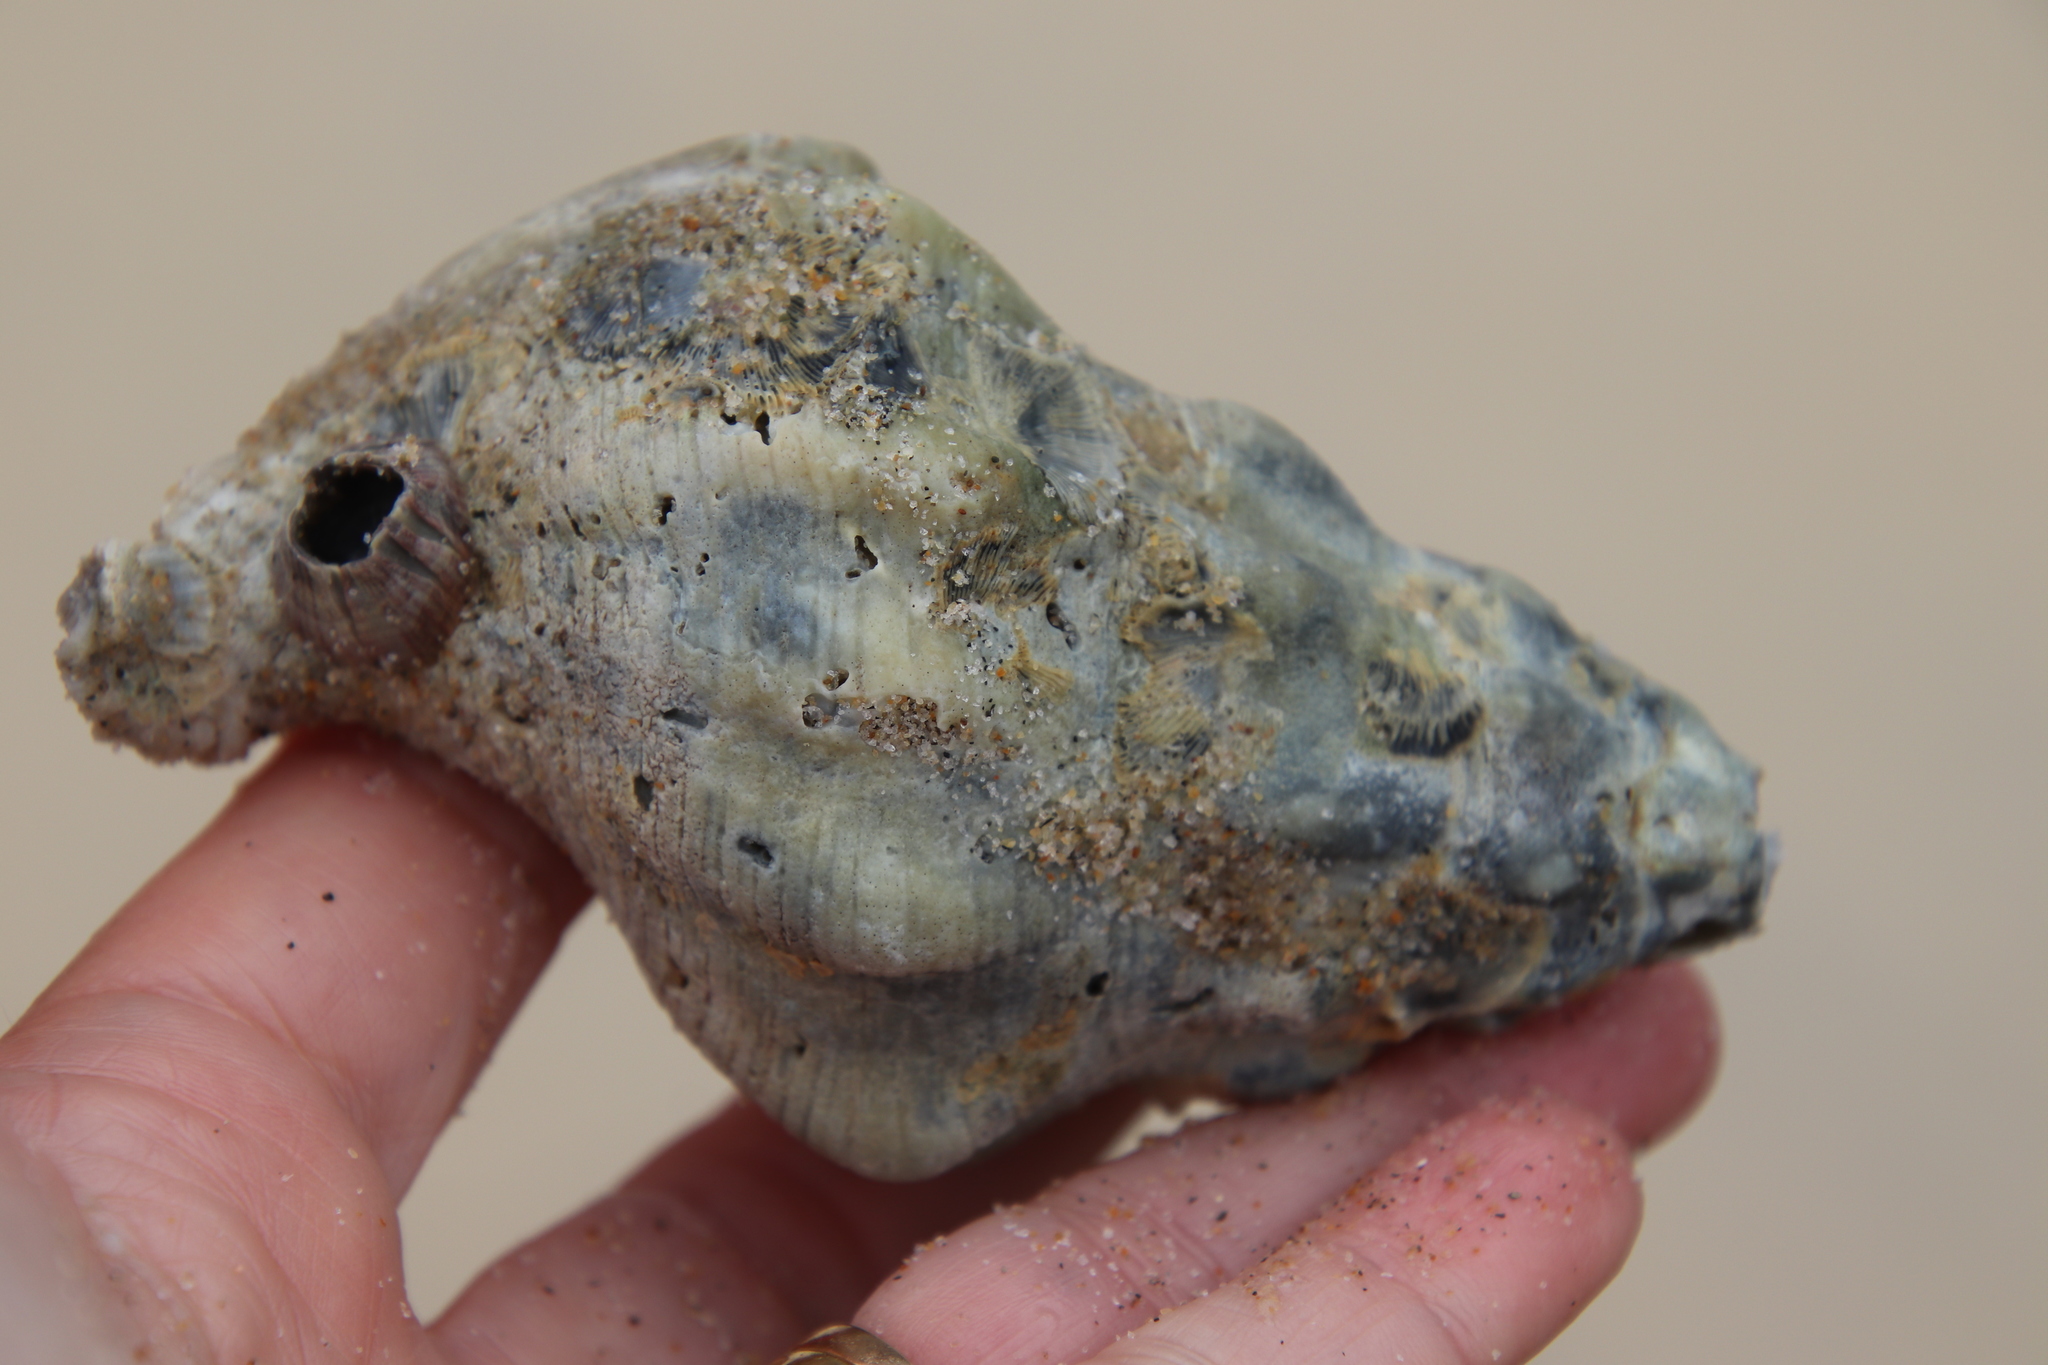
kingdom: Animalia
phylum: Mollusca
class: Gastropoda
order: Neogastropoda
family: Austrosiphonidae
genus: Kelletia
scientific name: Kelletia kelletii
